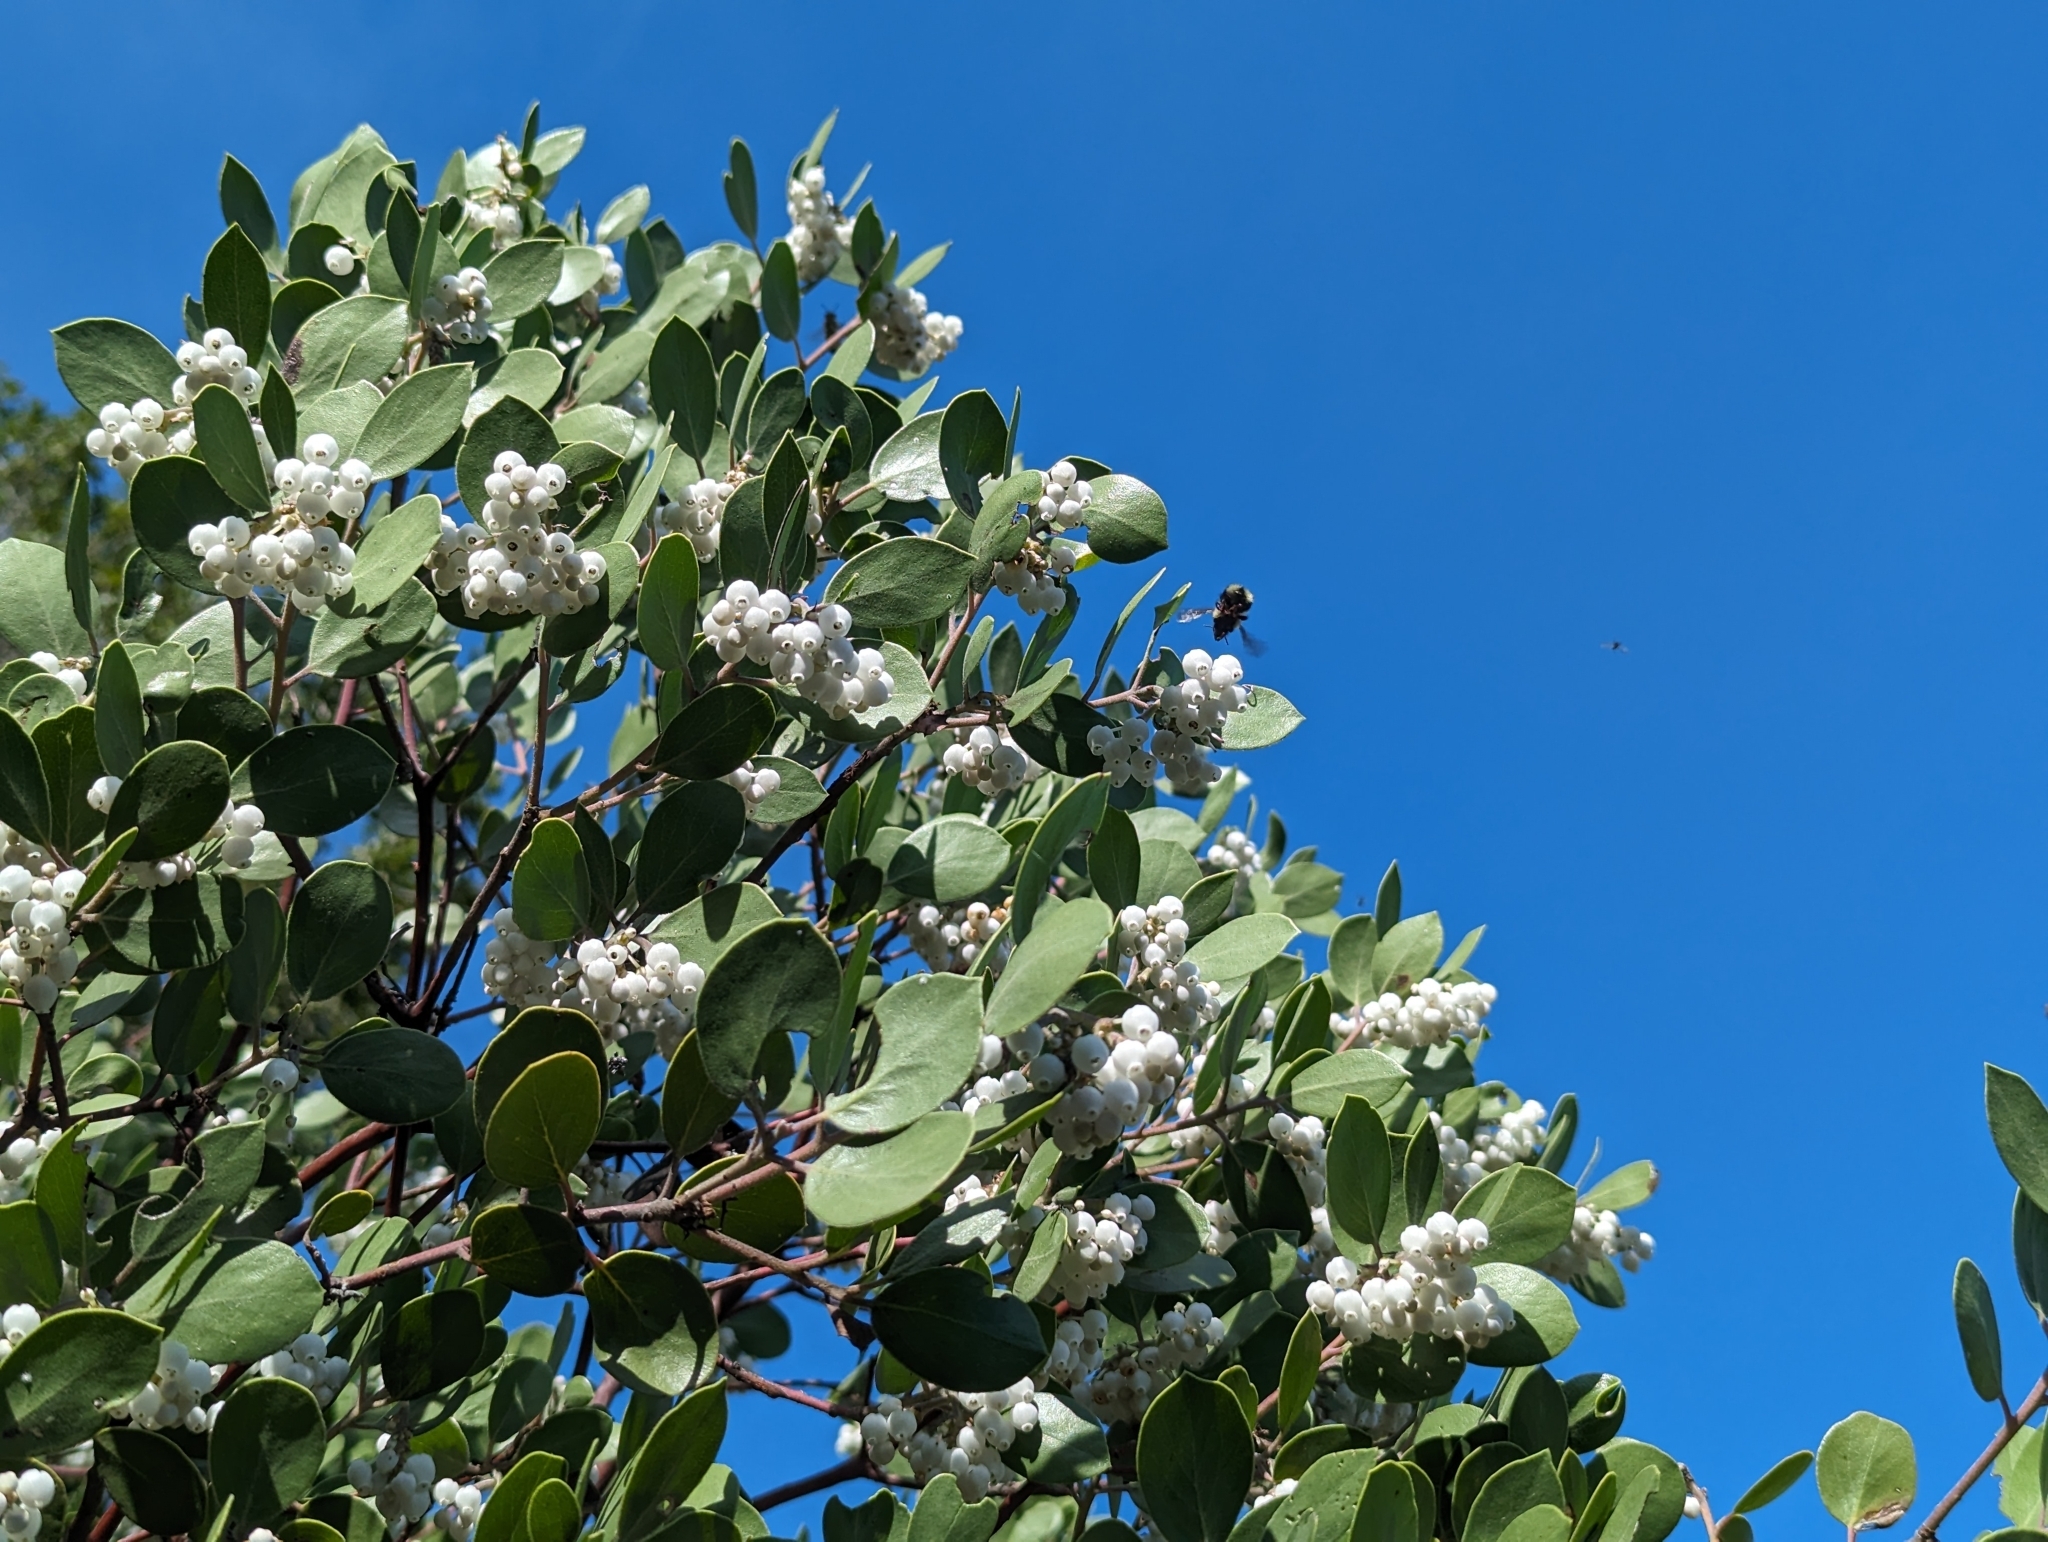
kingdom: Plantae
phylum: Tracheophyta
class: Magnoliopsida
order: Ericales
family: Ericaceae
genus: Arctostaphylos
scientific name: Arctostaphylos manzanita
